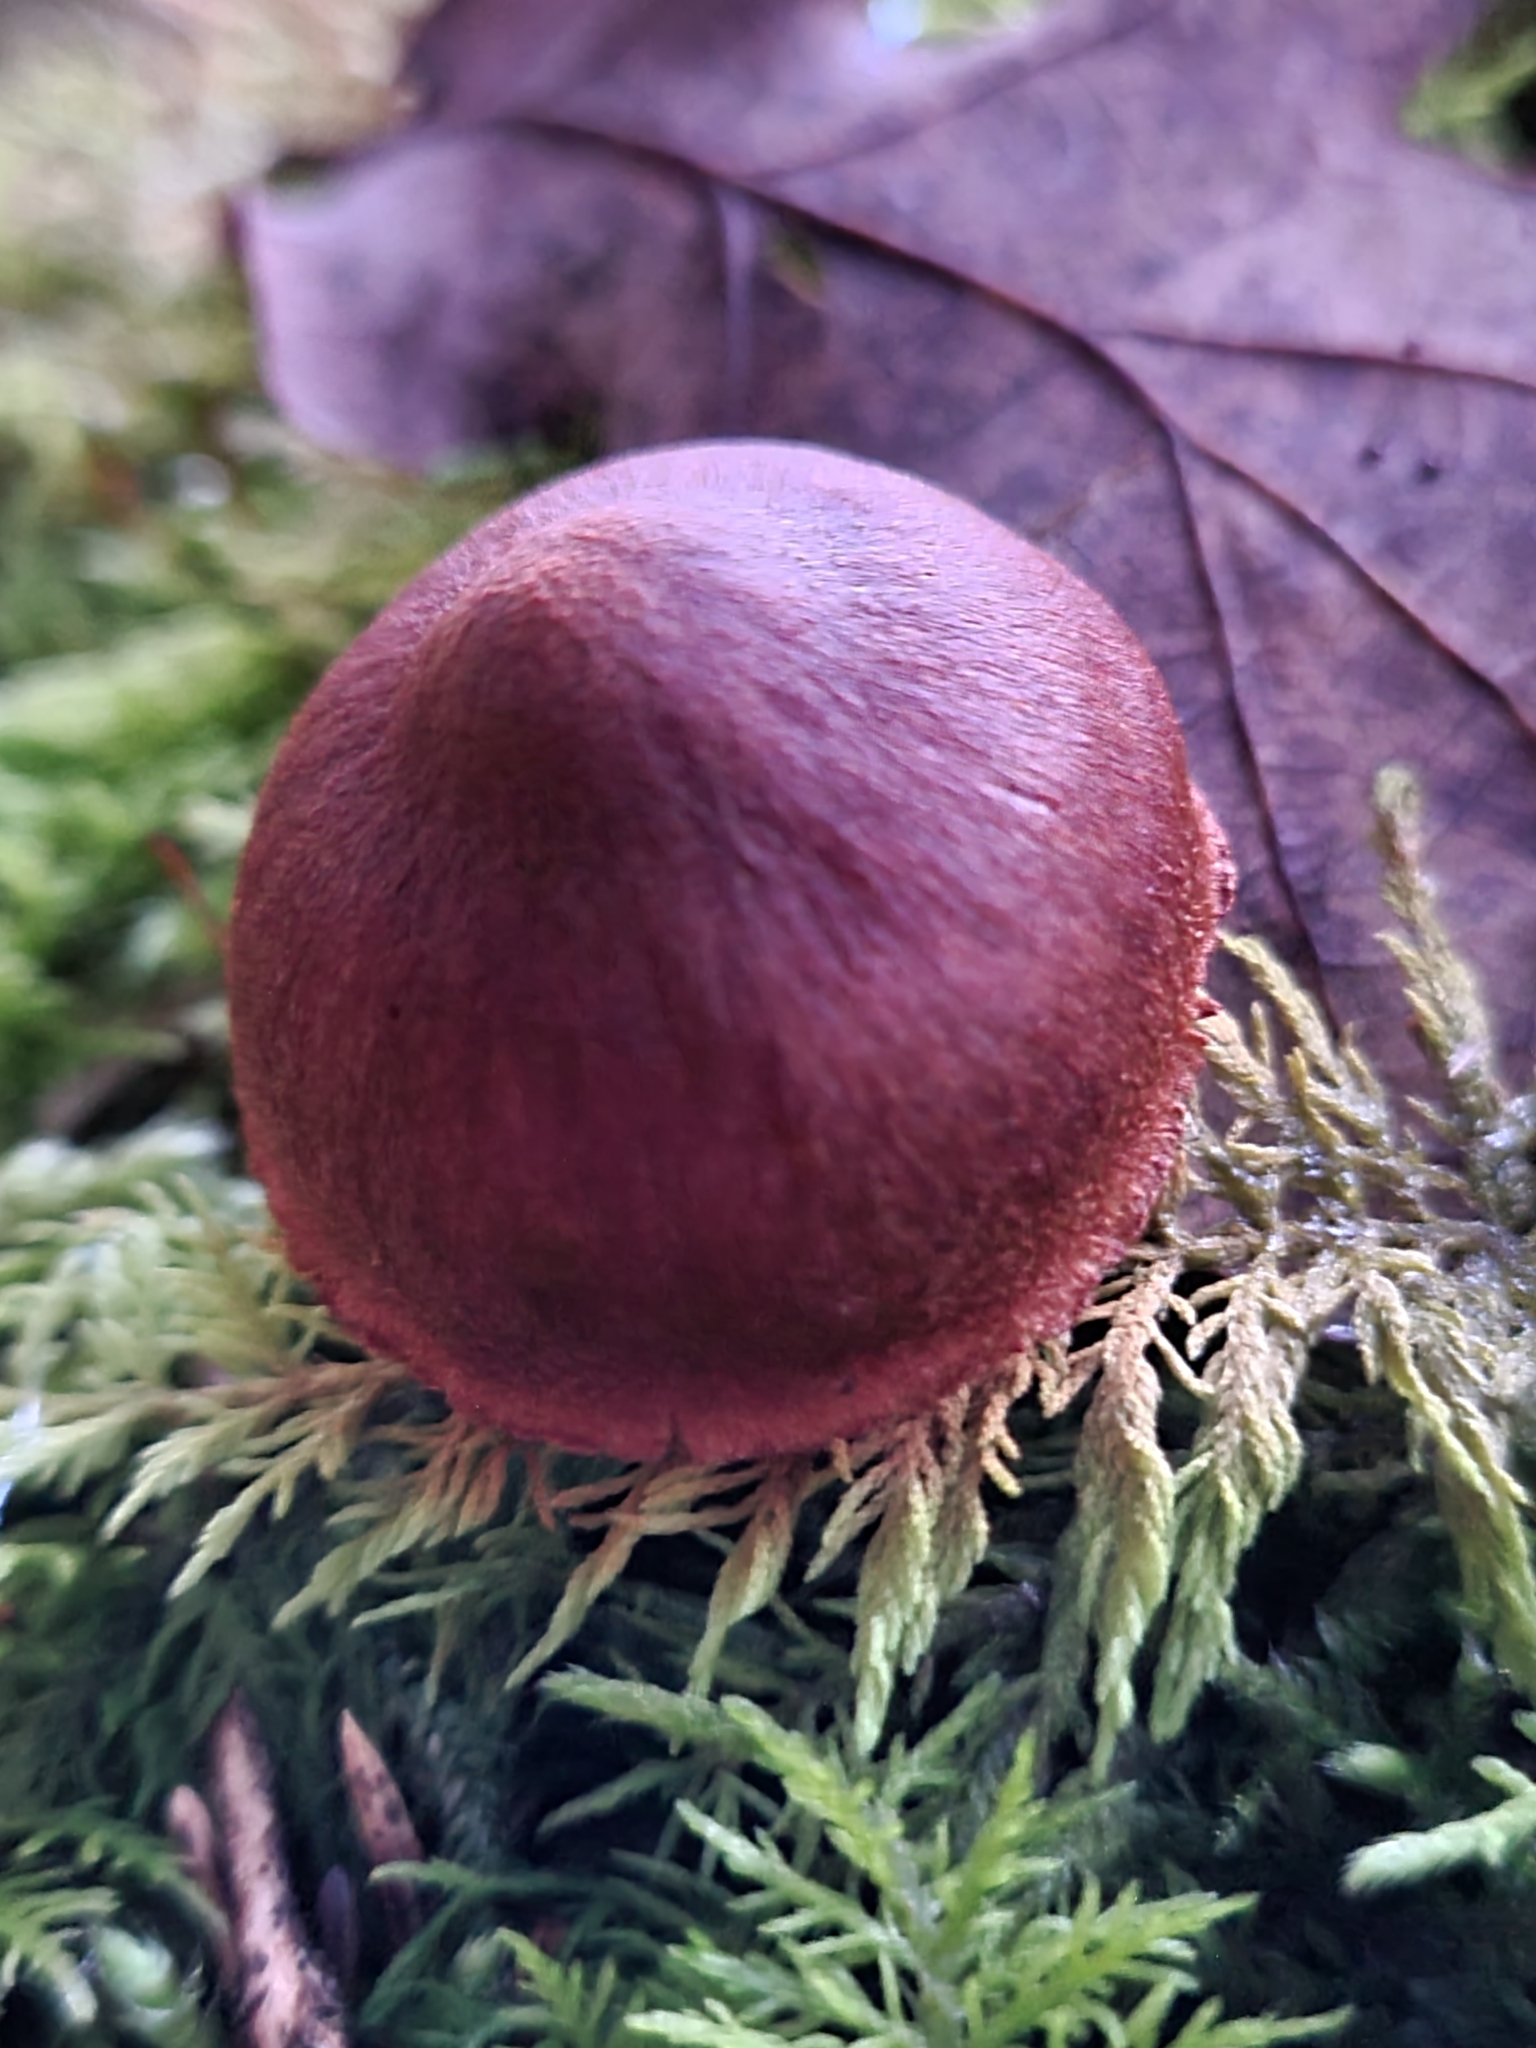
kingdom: Fungi
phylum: Basidiomycota
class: Agaricomycetes
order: Agaricales
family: Cortinariaceae
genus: Cortinarius
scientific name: Cortinarius sanguineus
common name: Bloodred webcap
